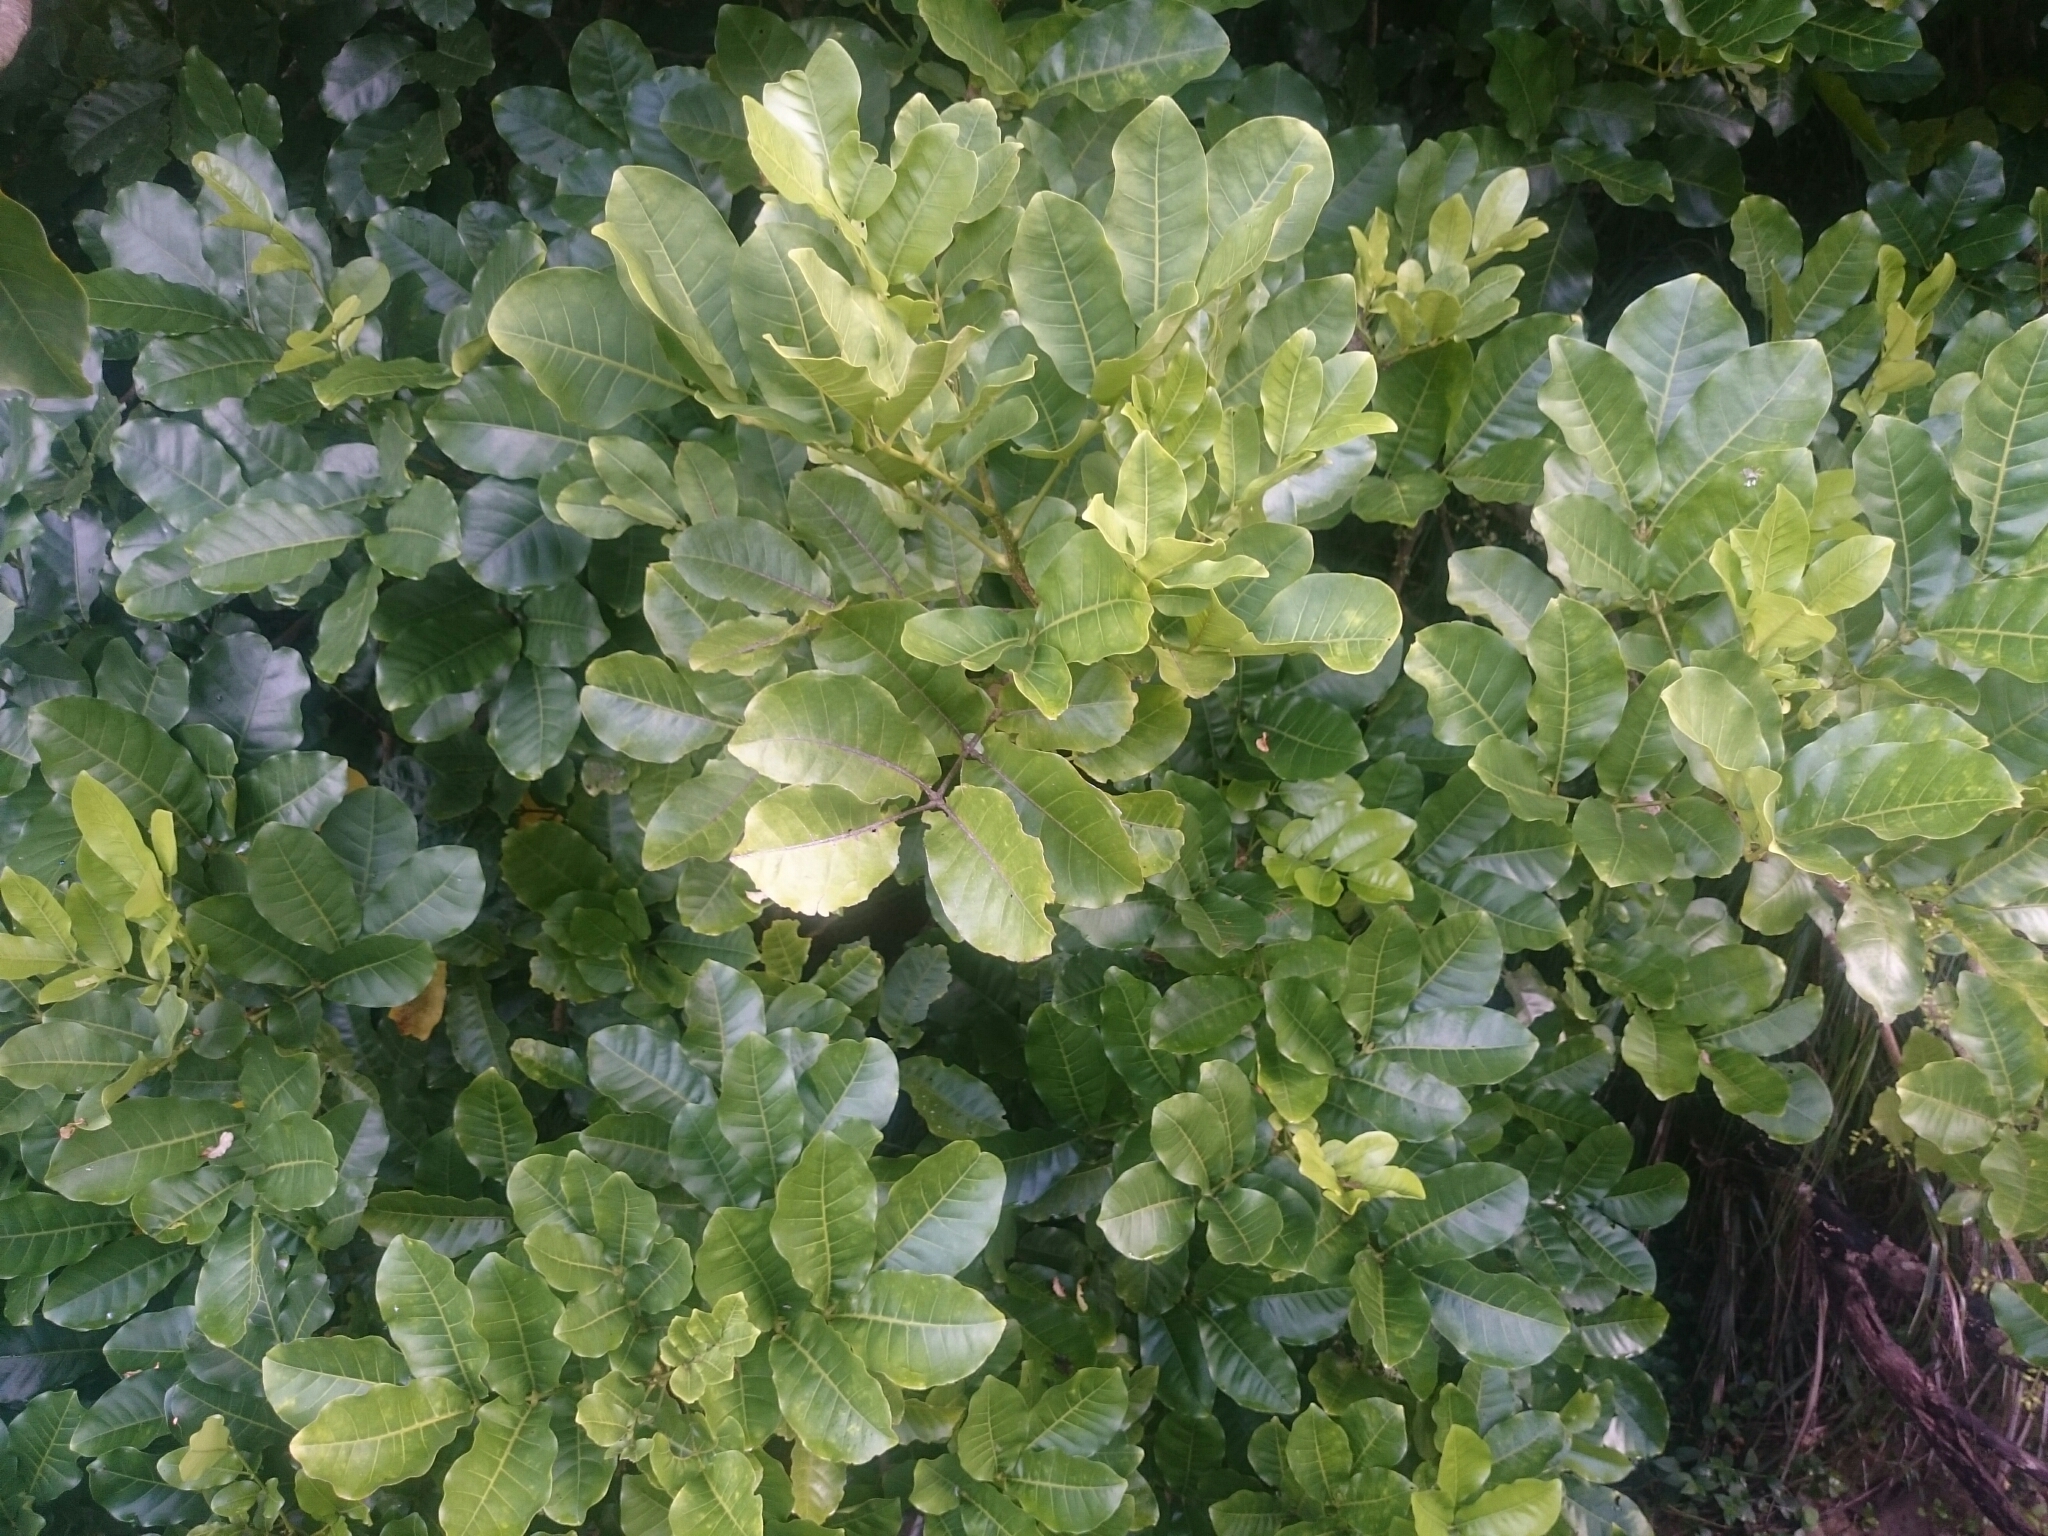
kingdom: Plantae
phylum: Tracheophyta
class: Magnoliopsida
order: Sapindales
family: Meliaceae
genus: Didymocheton
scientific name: Didymocheton spectabilis
